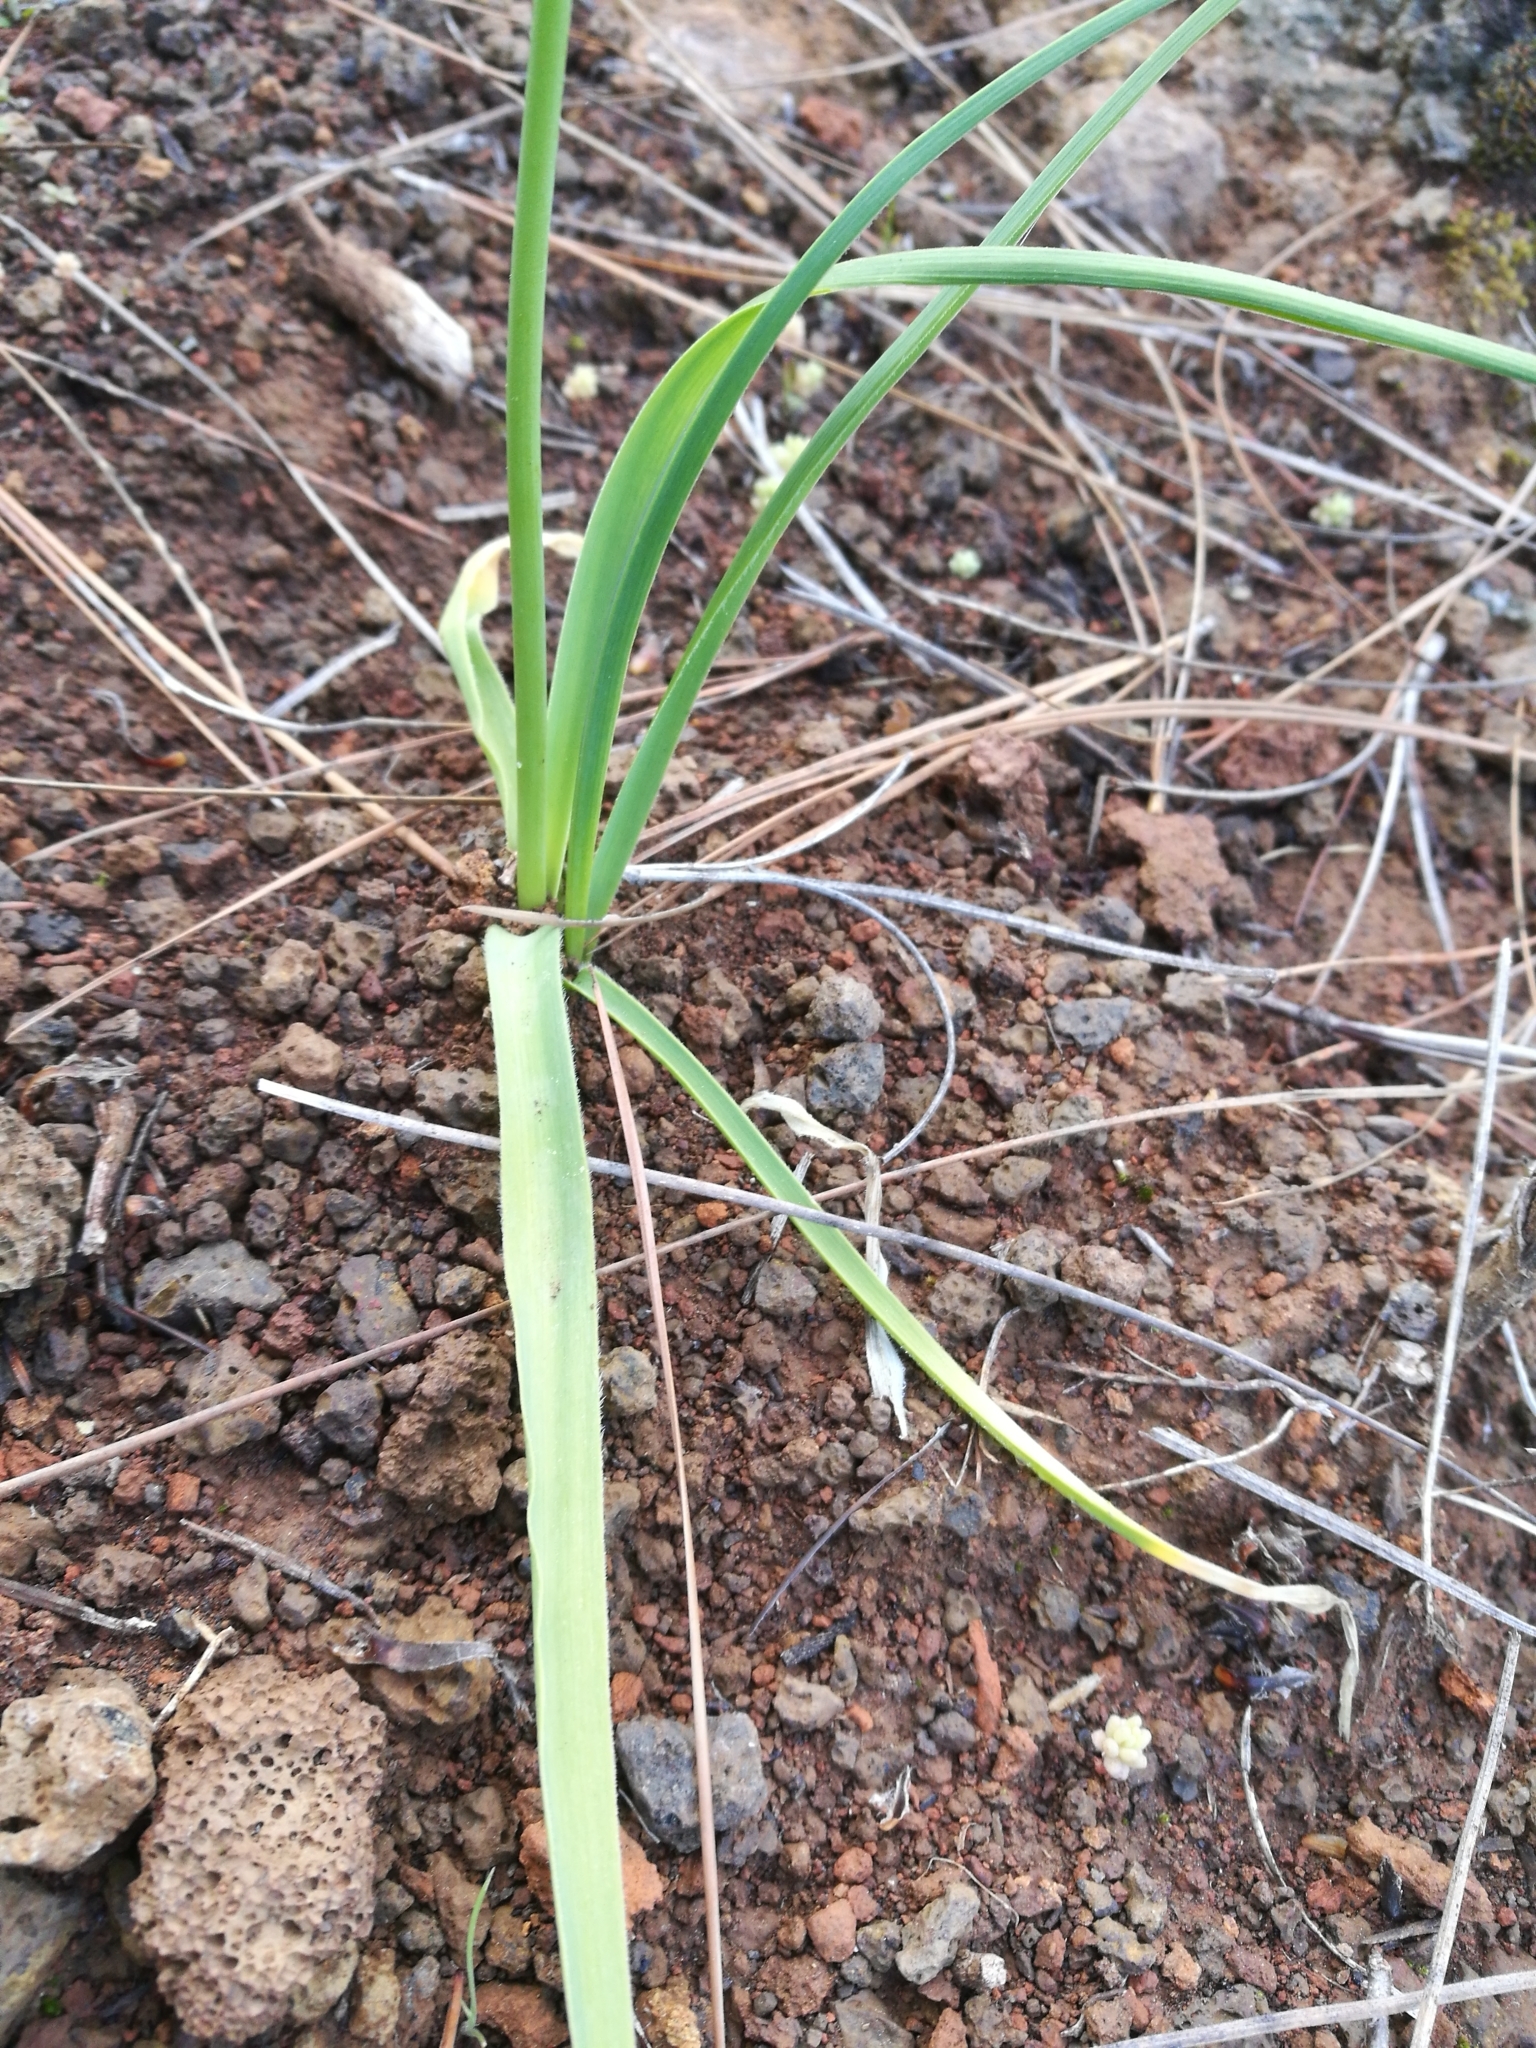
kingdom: Plantae
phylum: Tracheophyta
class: Liliopsida
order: Asparagales
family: Amaryllidaceae
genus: Allium
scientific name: Allium canariense
